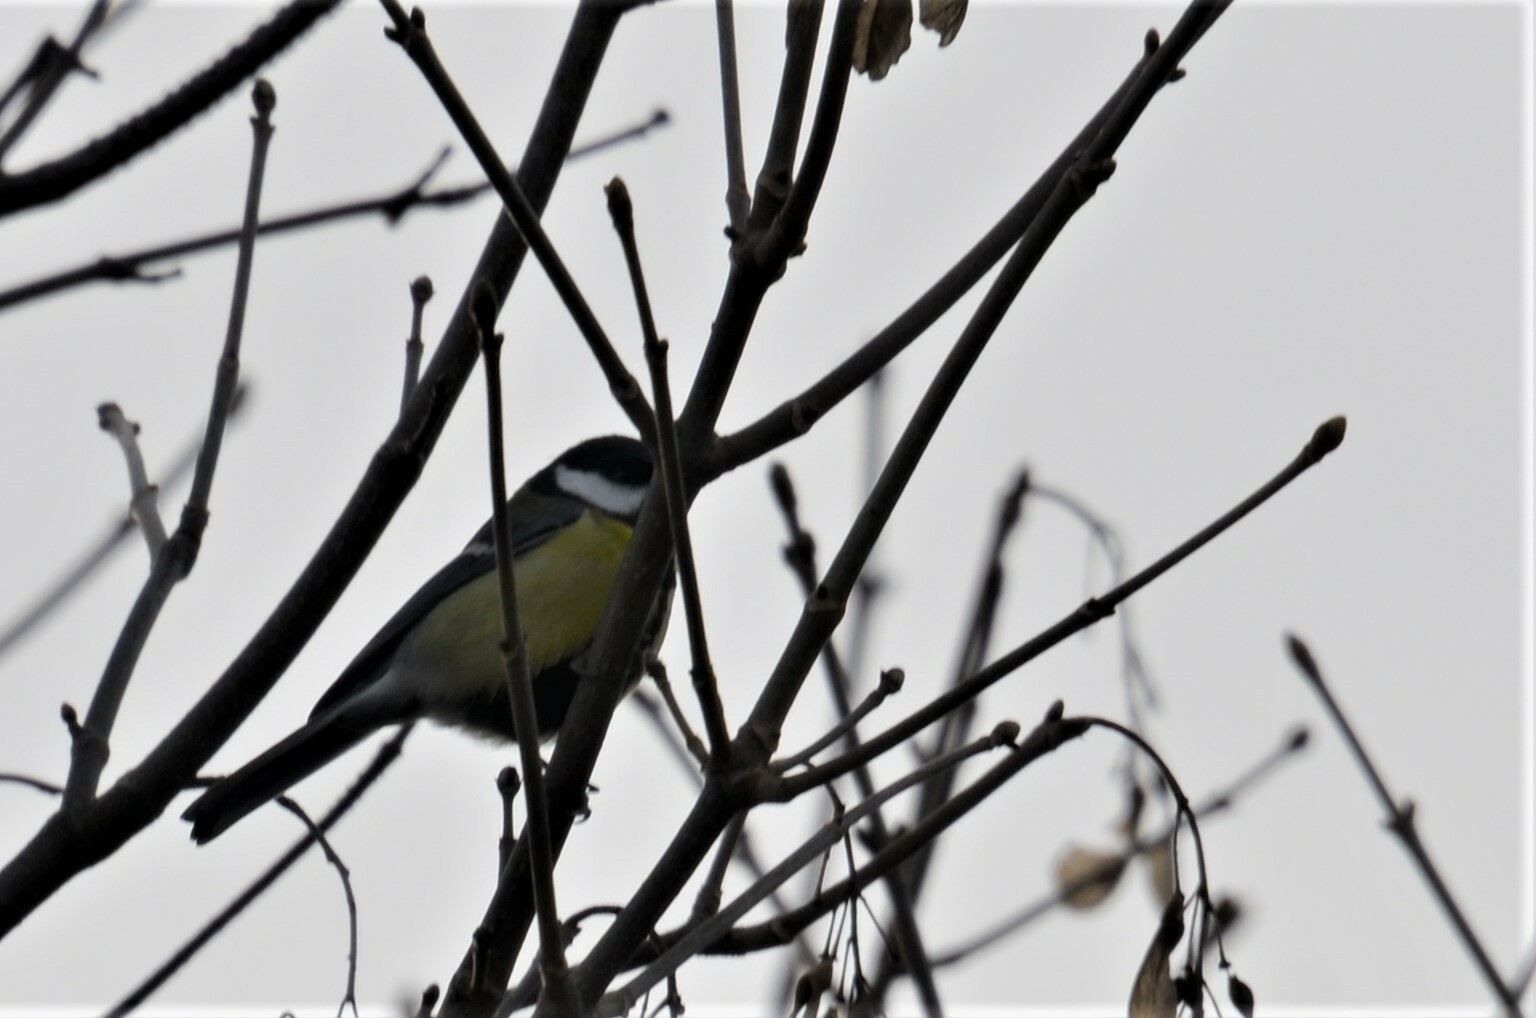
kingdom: Animalia
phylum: Chordata
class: Aves
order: Passeriformes
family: Paridae
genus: Parus
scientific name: Parus major
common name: Great tit
